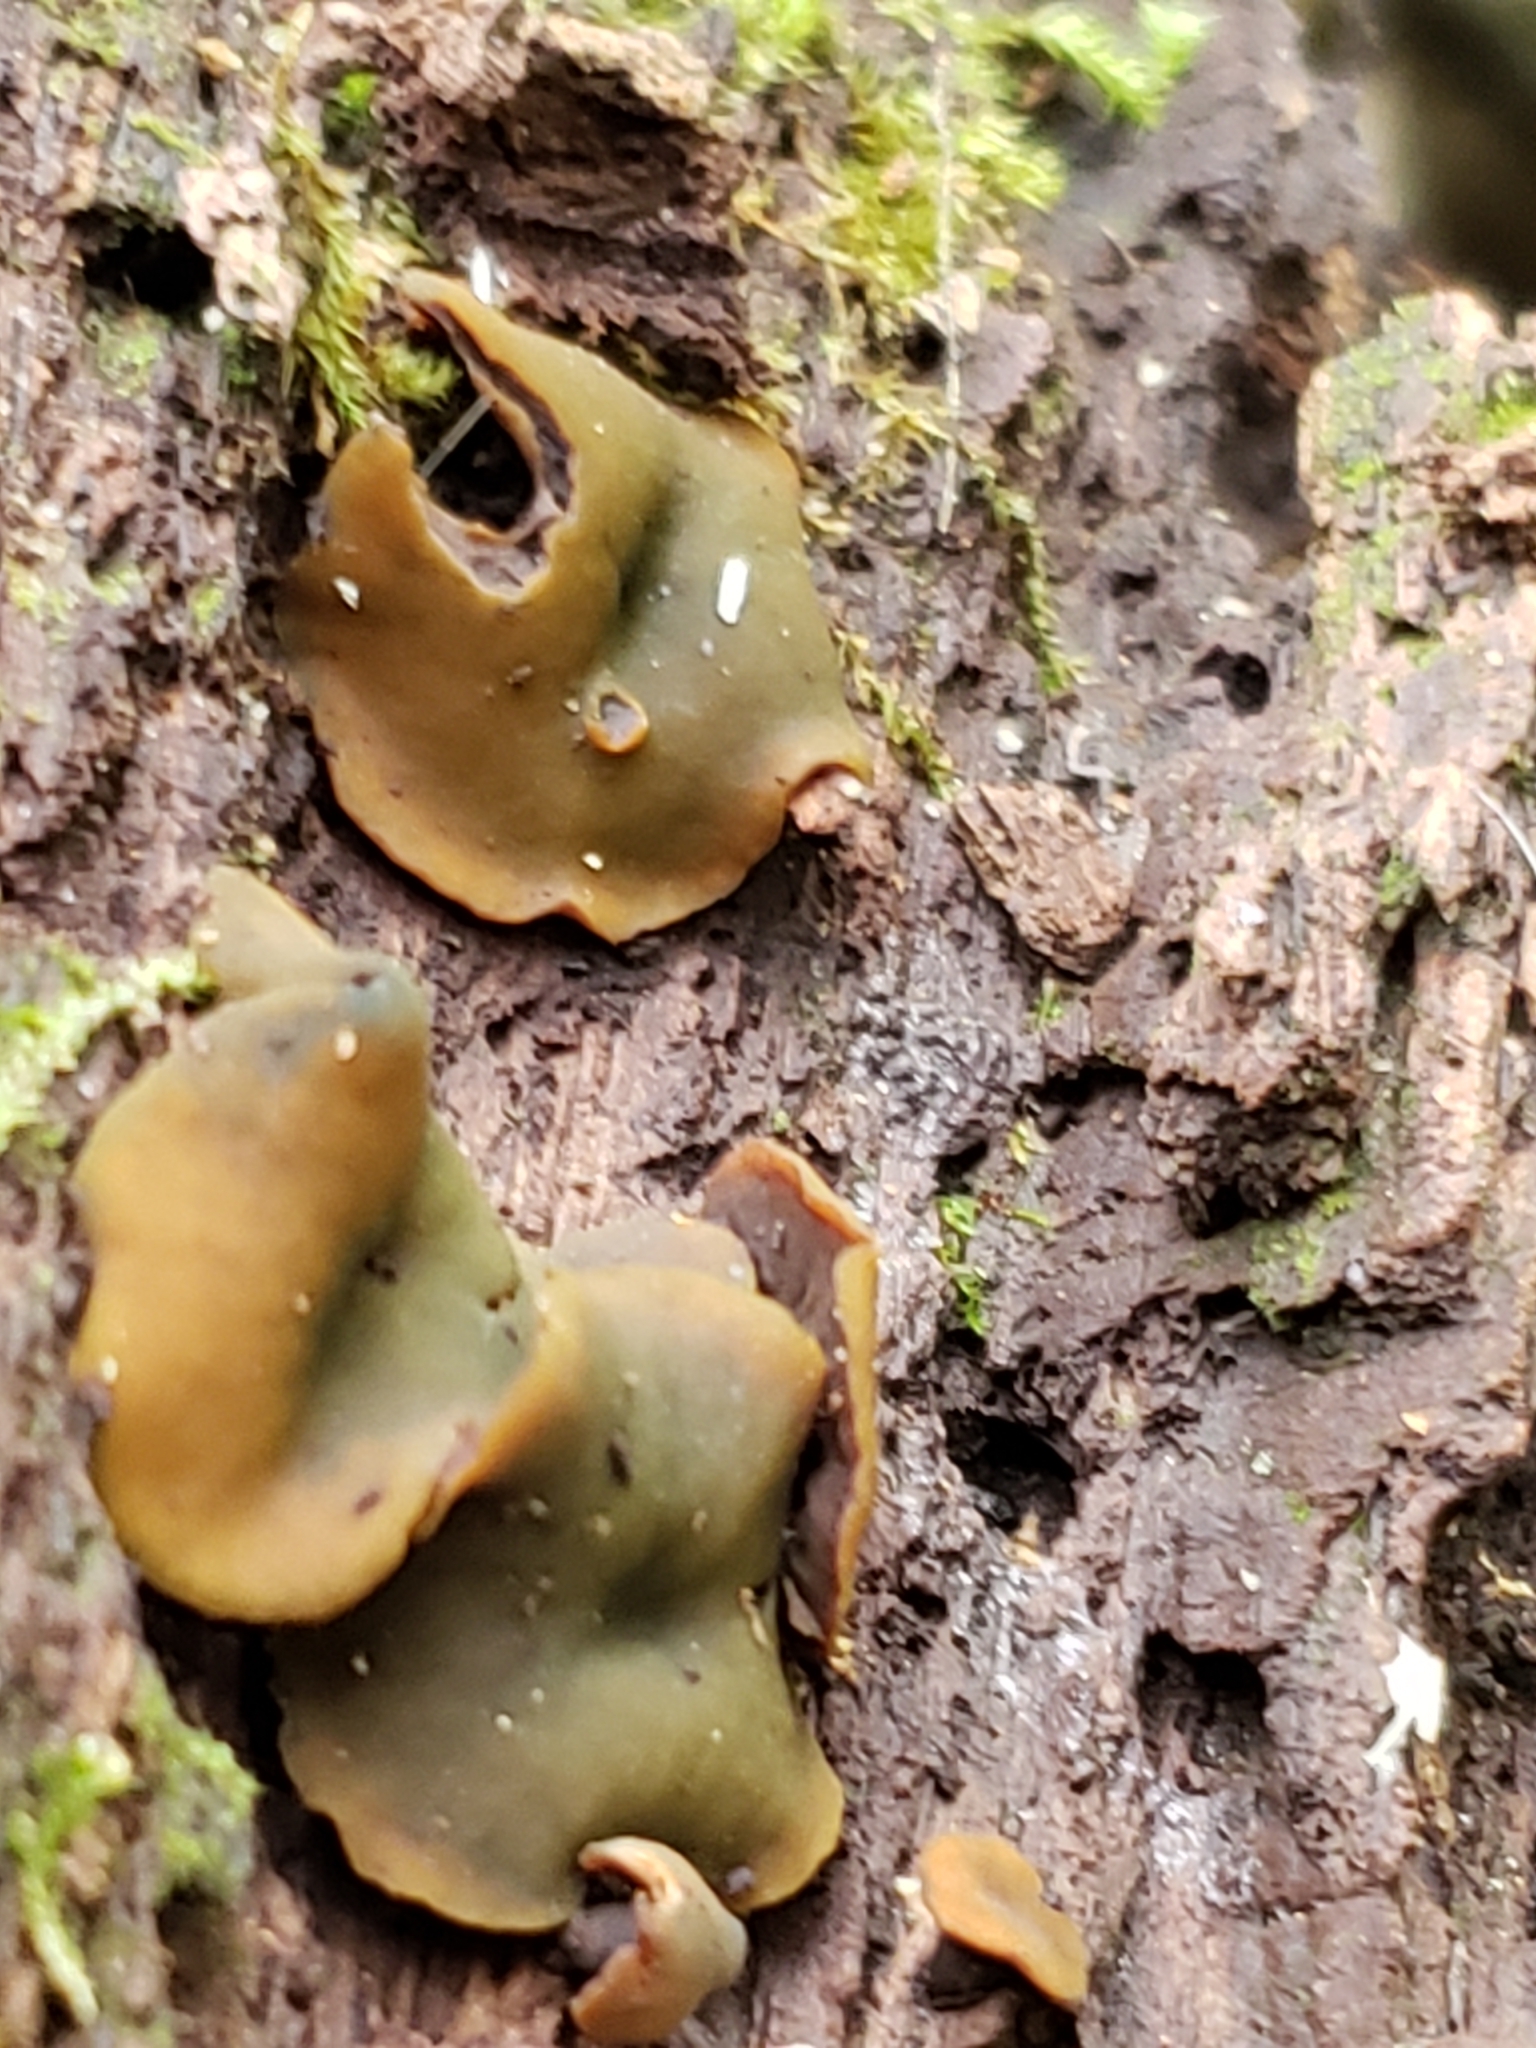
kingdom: Fungi
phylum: Ascomycota
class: Leotiomycetes
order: Helotiales
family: Cenangiaceae
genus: Chlorencoelia
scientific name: Chlorencoelia torta
